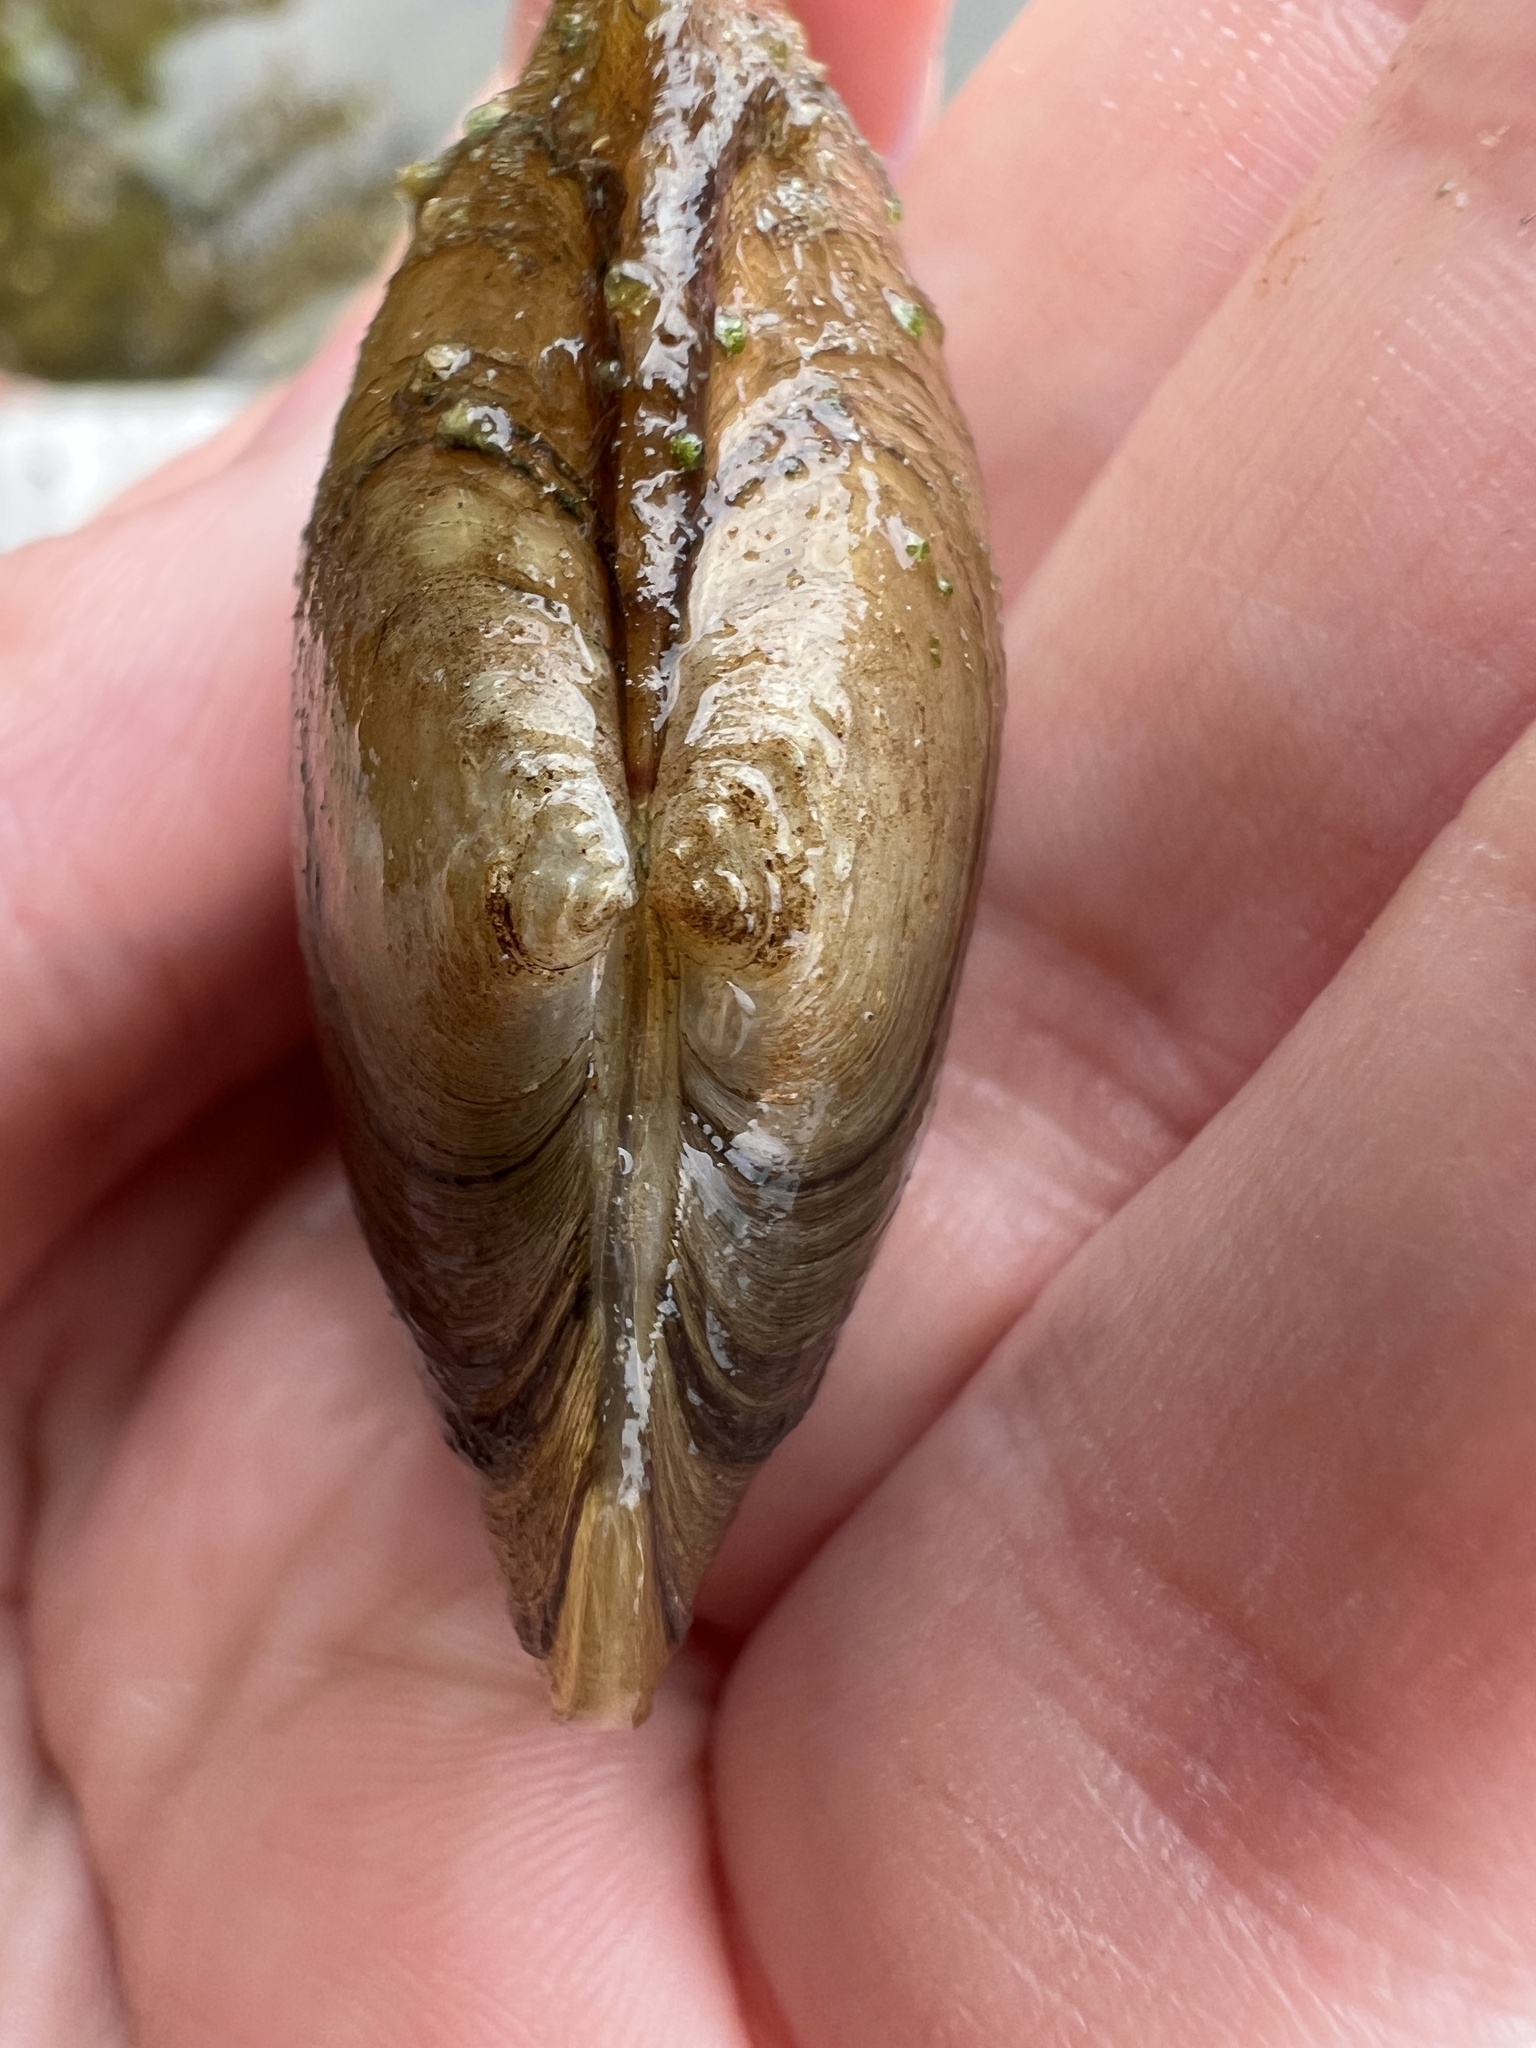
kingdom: Animalia
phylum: Mollusca
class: Bivalvia
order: Unionida
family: Unionidae
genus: Pyganodon
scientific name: Pyganodon grandis
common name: Giant floater
